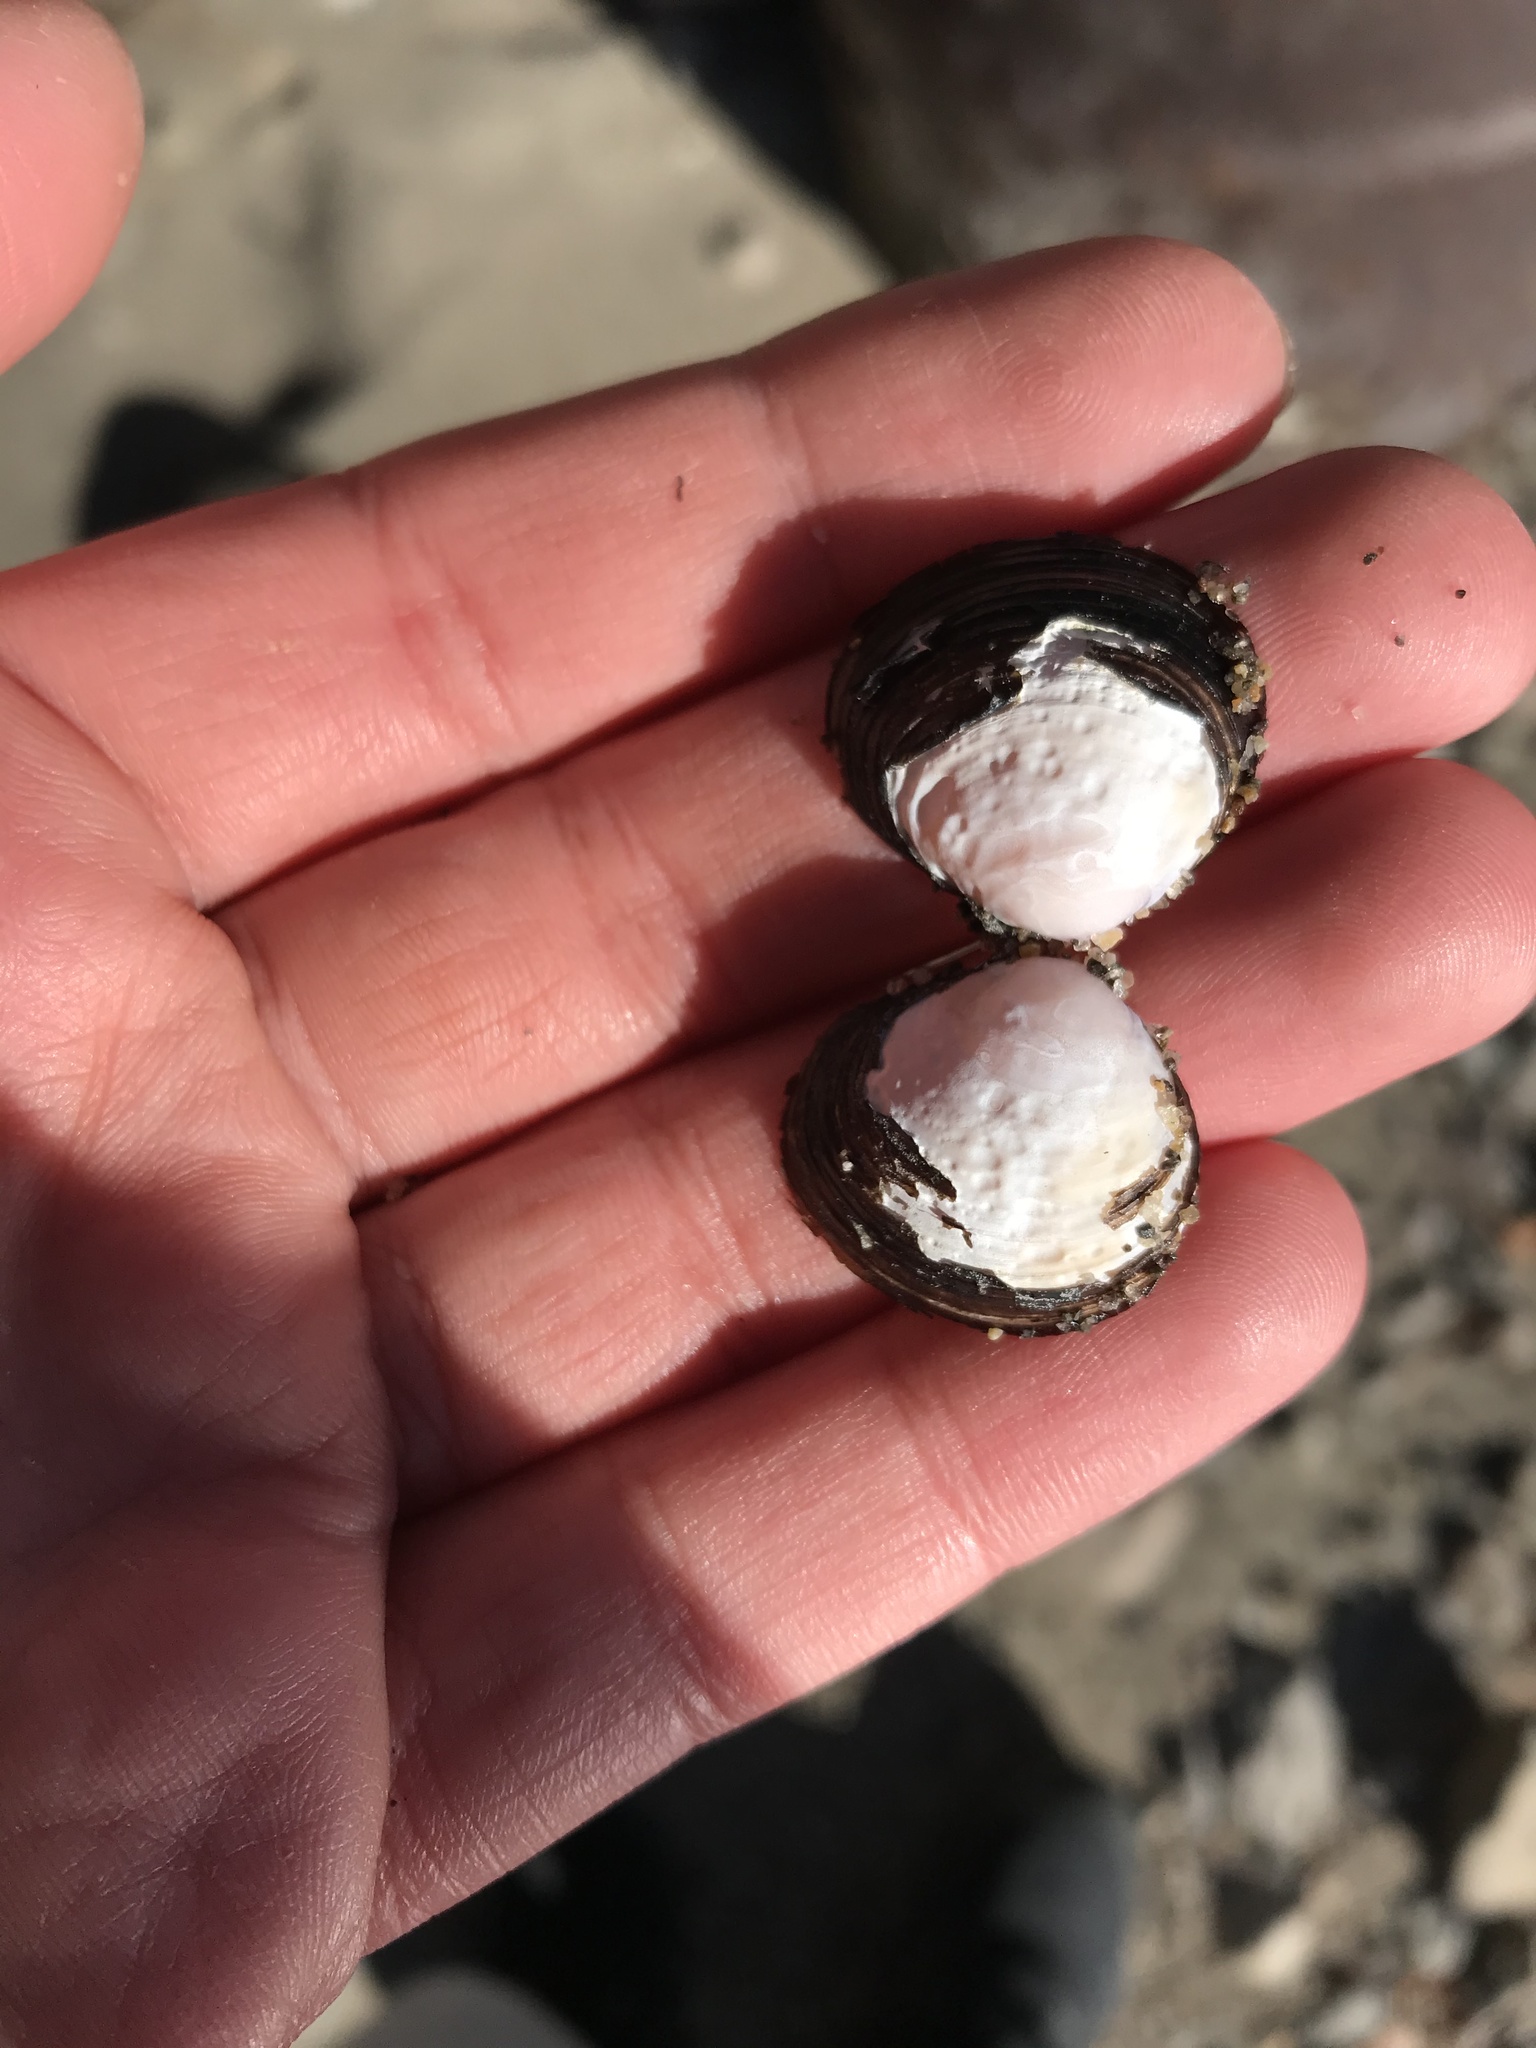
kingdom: Animalia
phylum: Mollusca
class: Bivalvia
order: Venerida
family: Cyrenidae
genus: Corbicula
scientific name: Corbicula fluminea
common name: Asian clam
